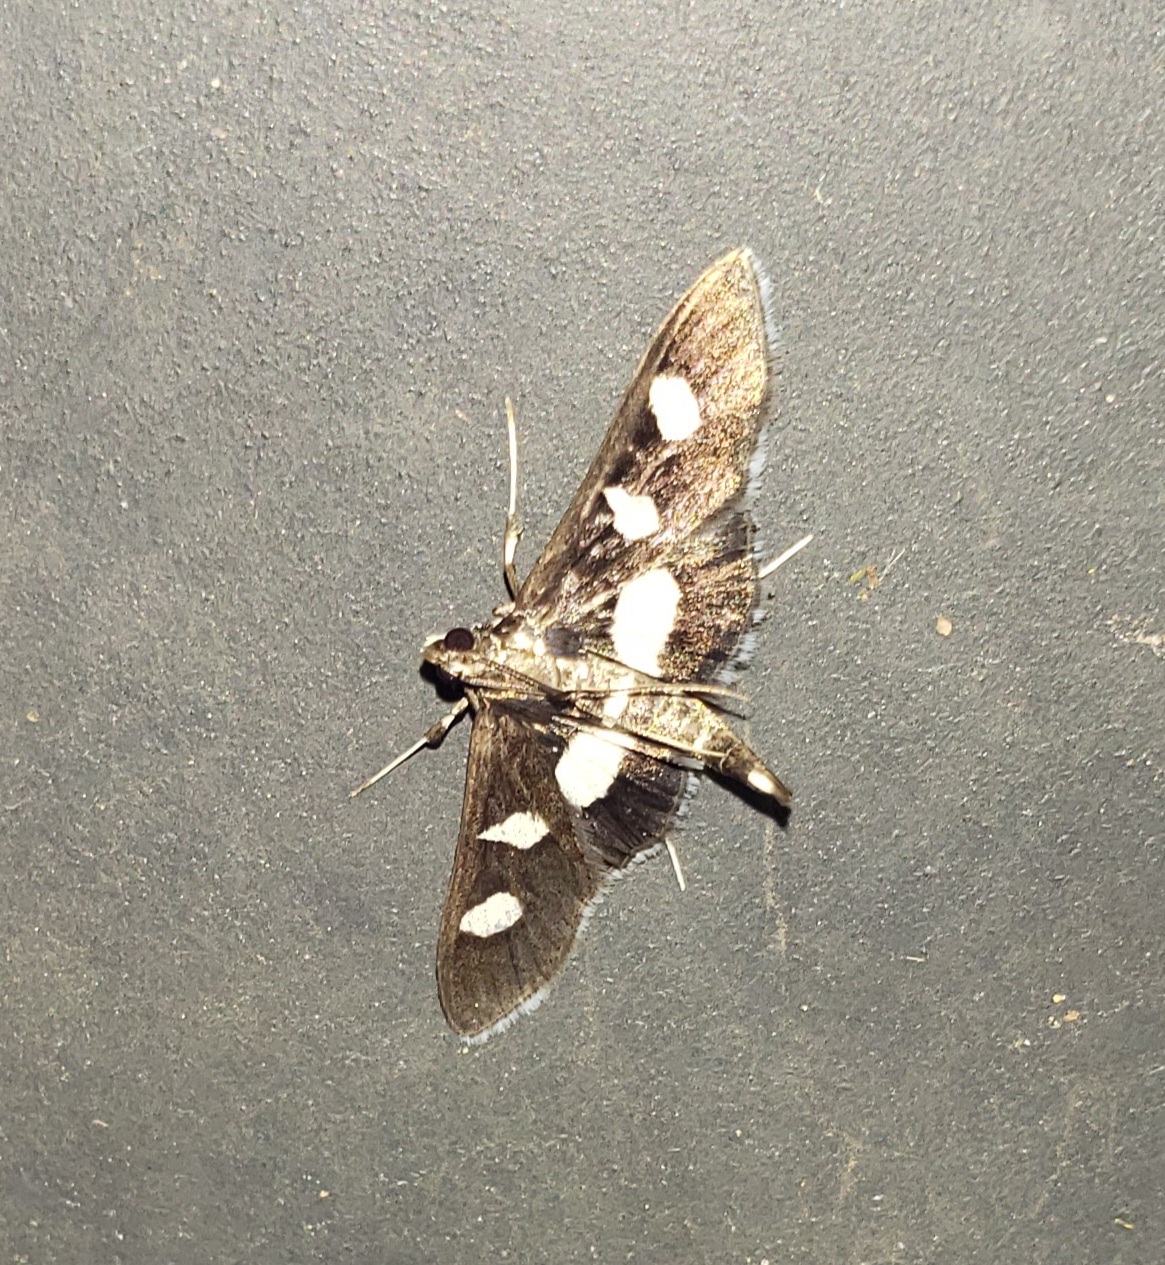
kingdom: Animalia
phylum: Arthropoda
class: Insecta
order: Lepidoptera
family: Crambidae
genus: Desmia
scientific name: Desmia funeralis
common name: Grape leaf folder moth
